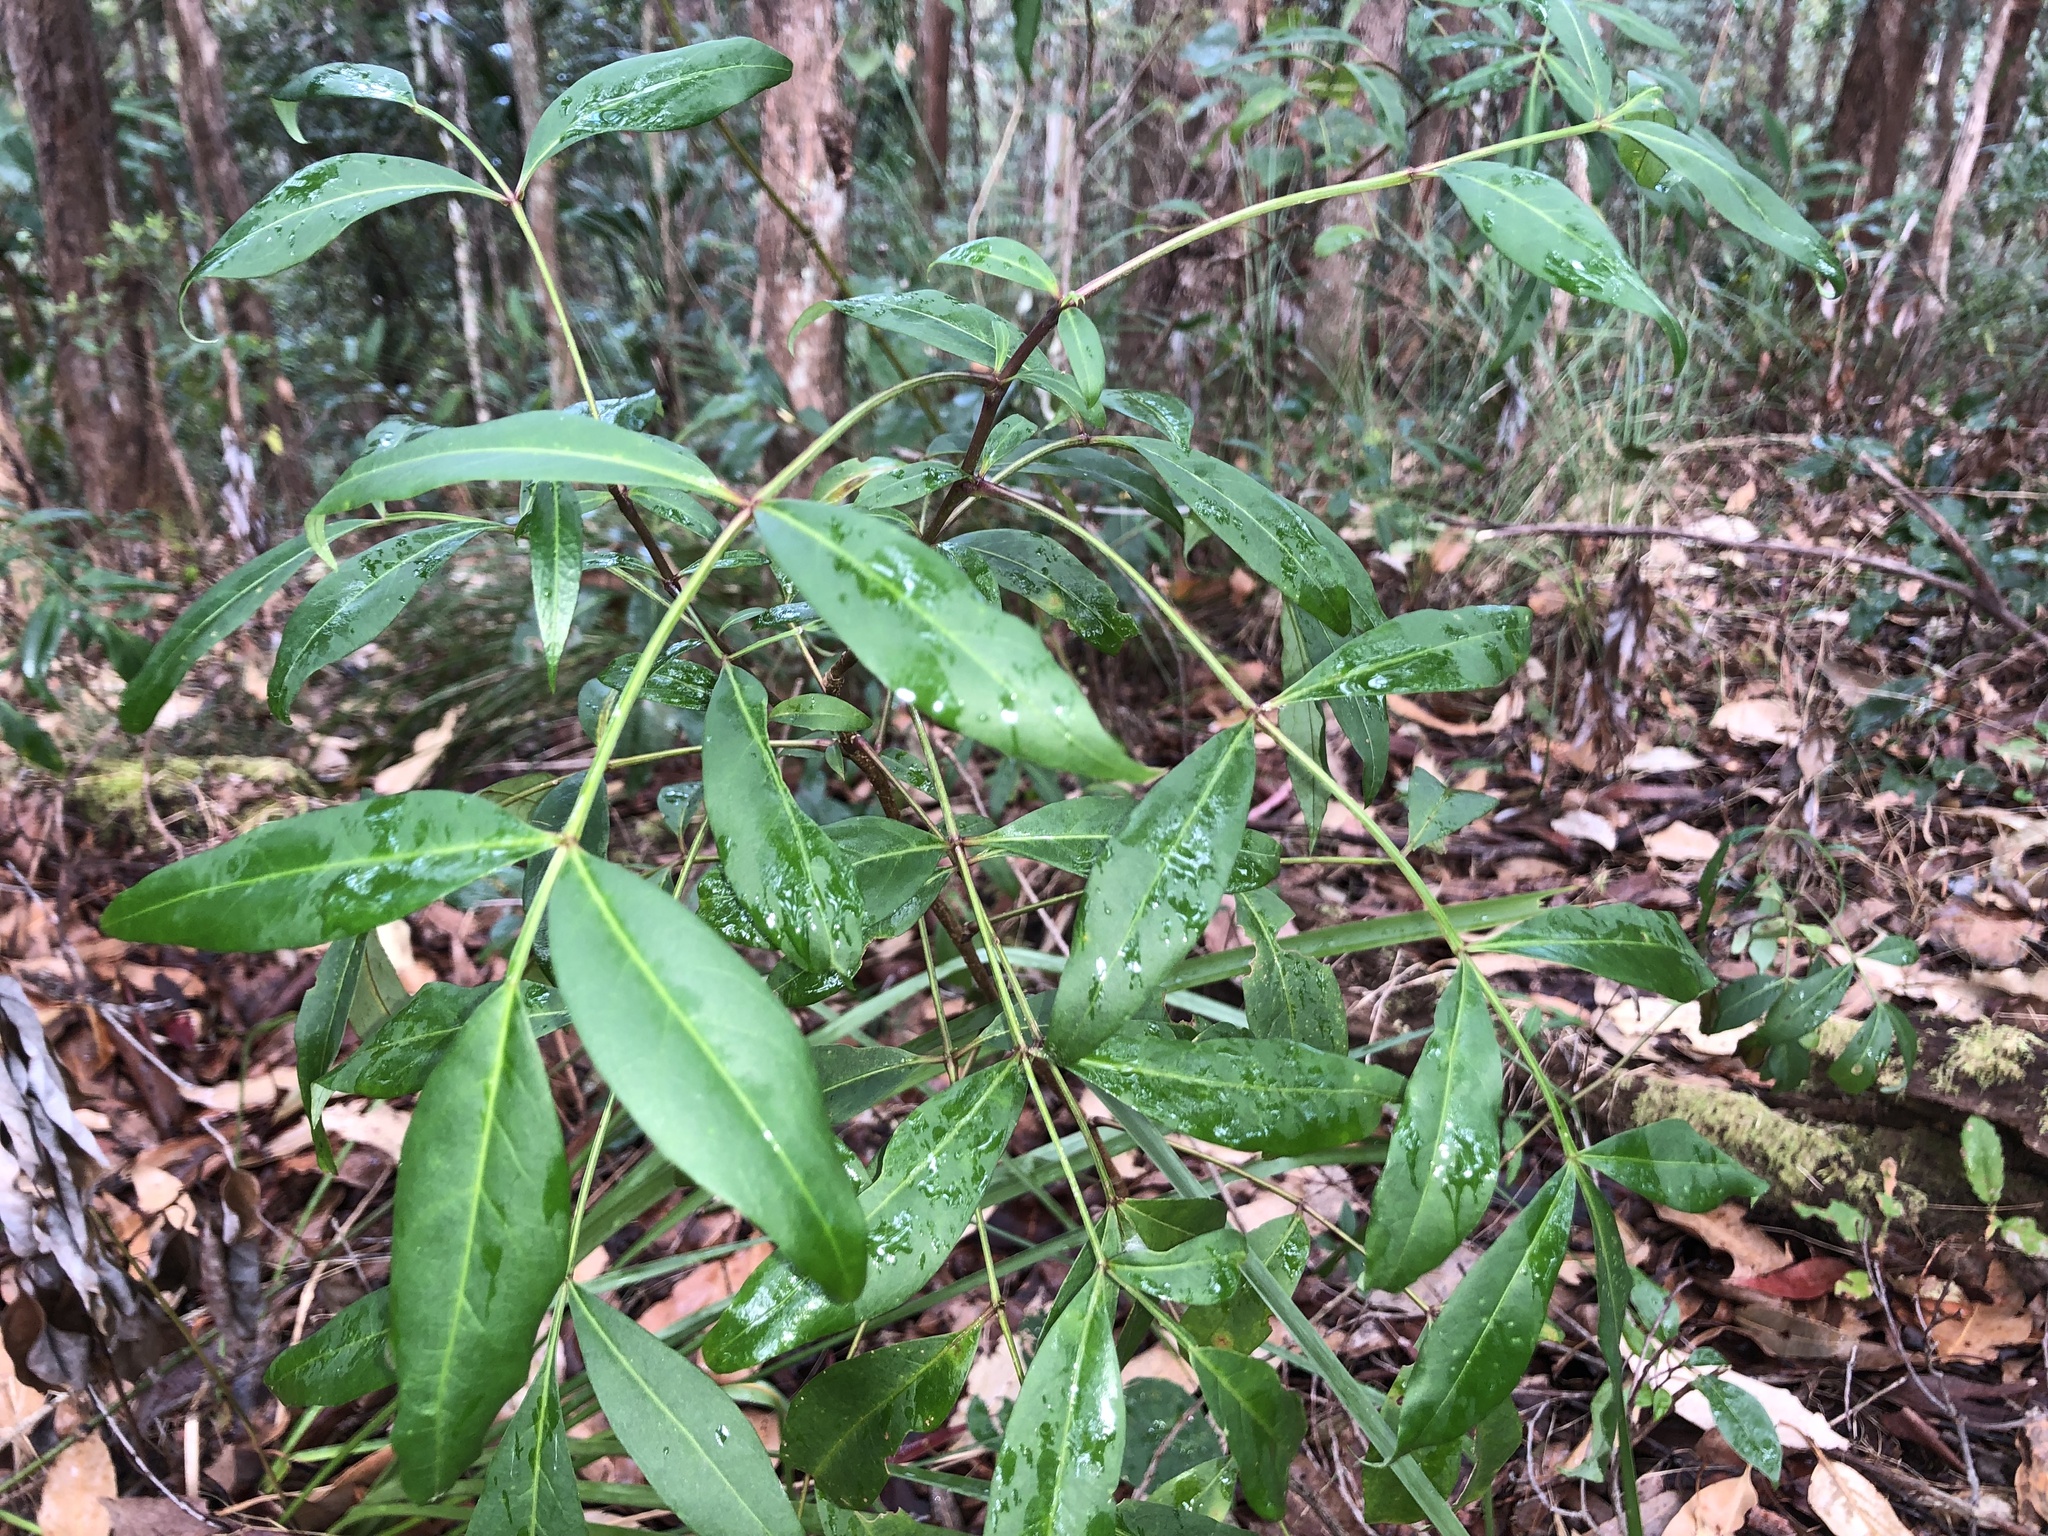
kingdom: Plantae
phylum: Tracheophyta
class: Magnoliopsida
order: Apiales
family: Araliaceae
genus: Polyscias
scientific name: Polyscias sambucifolia
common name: Elderberry-ash
